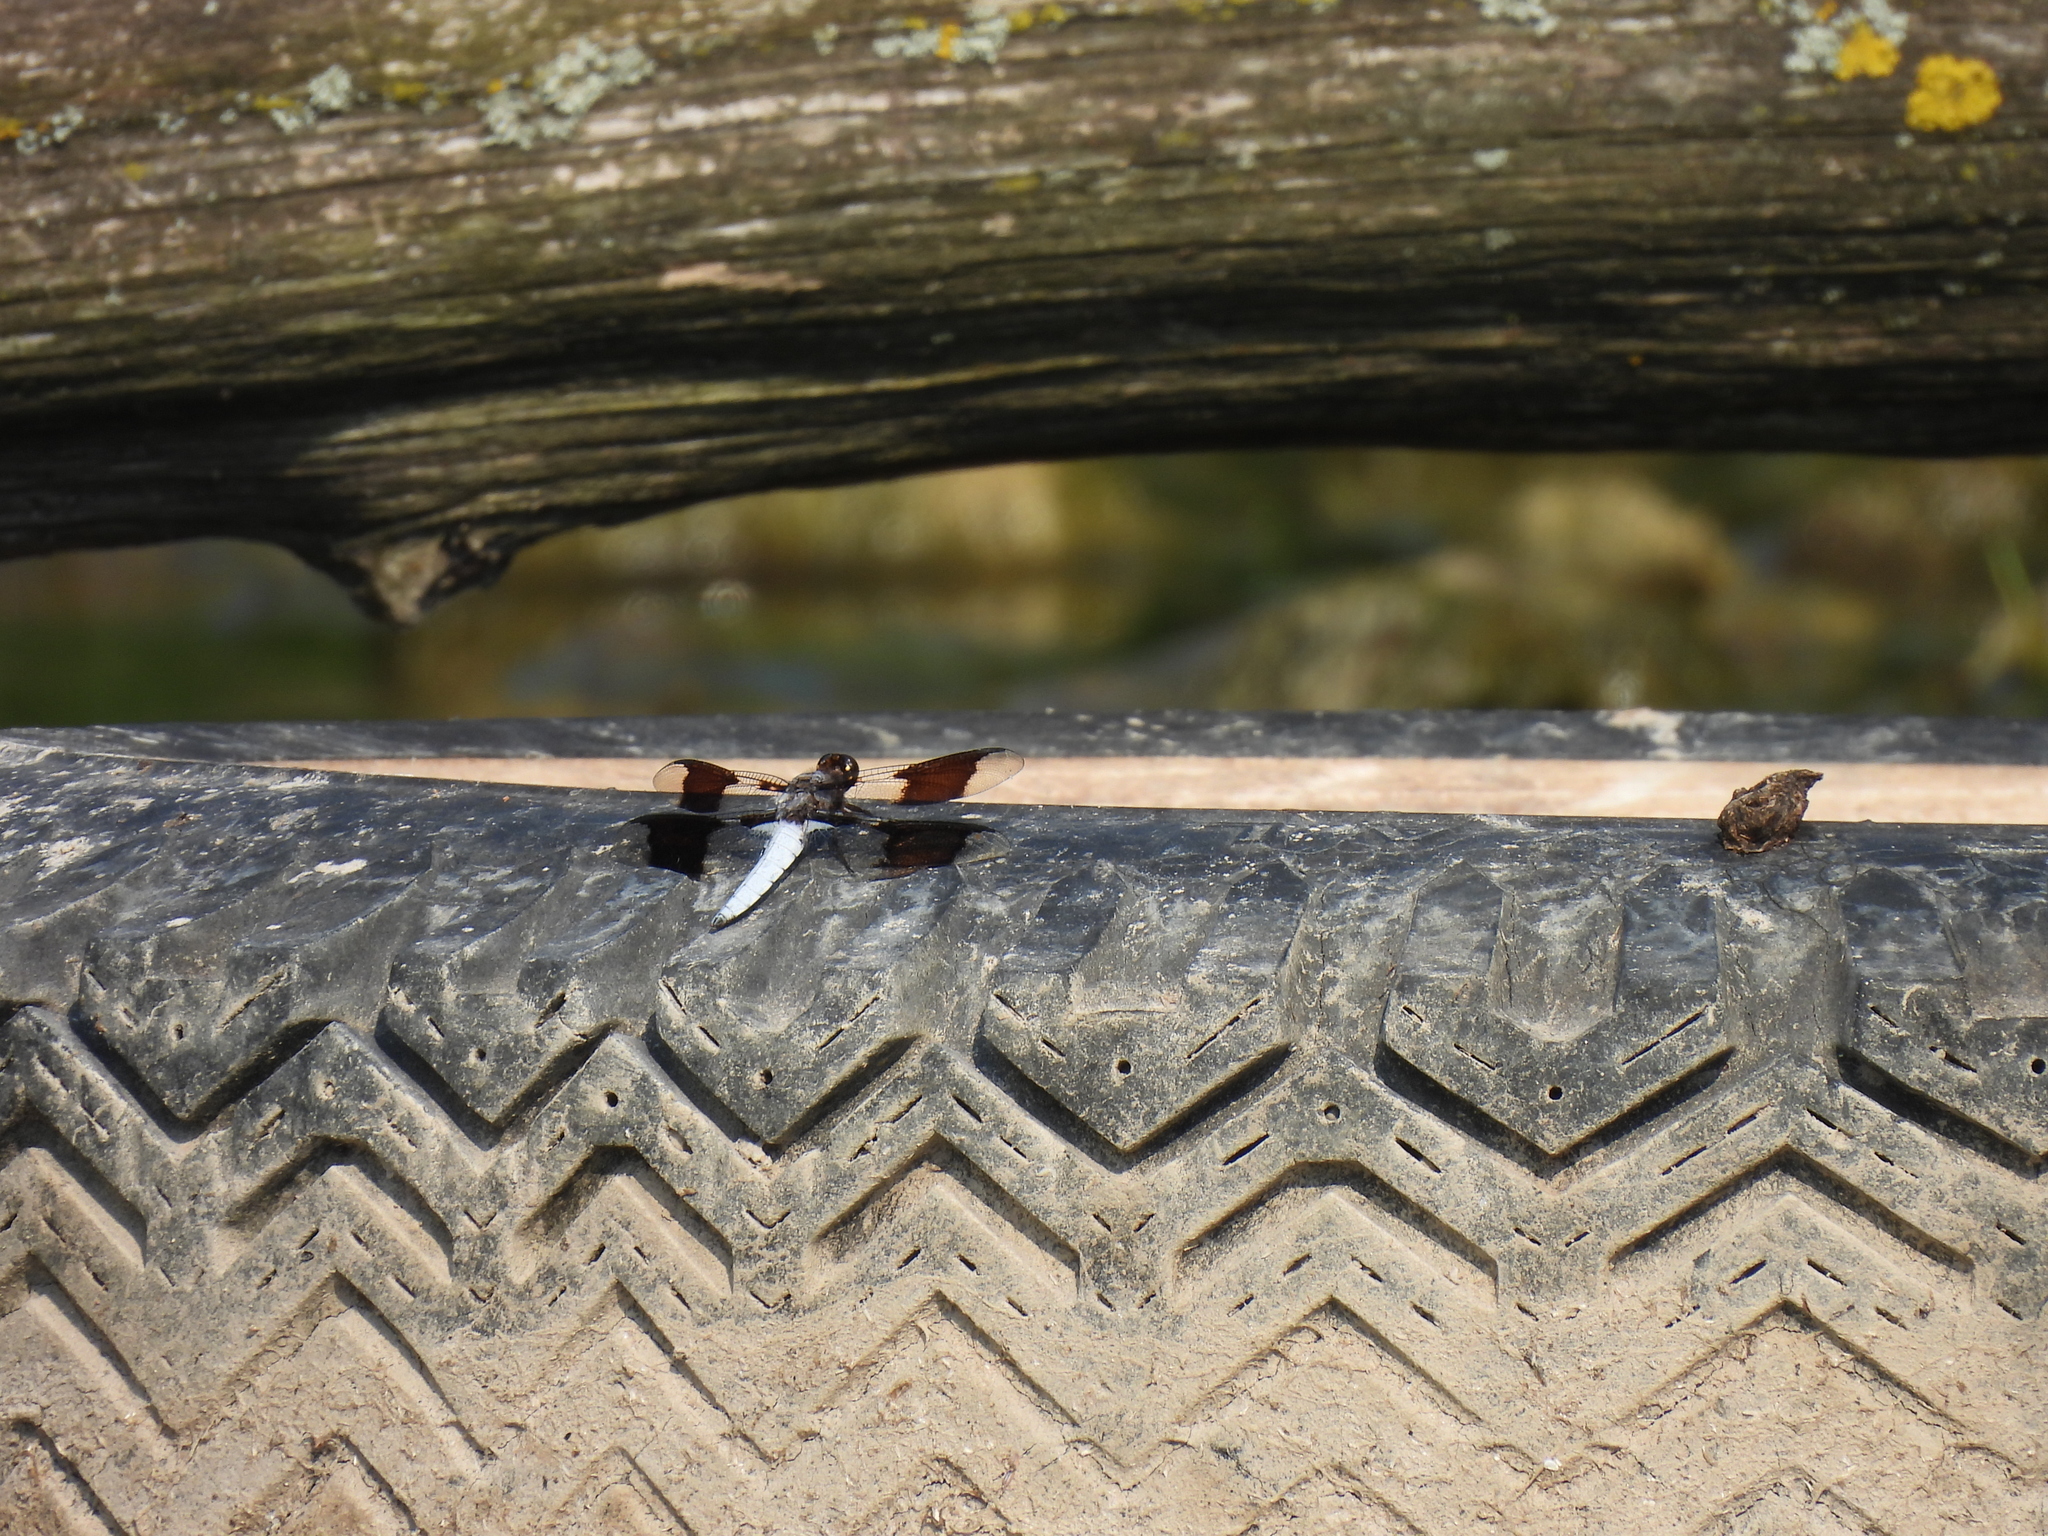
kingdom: Animalia
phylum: Arthropoda
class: Insecta
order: Odonata
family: Libellulidae
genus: Plathemis
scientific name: Plathemis lydia
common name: Common whitetail
